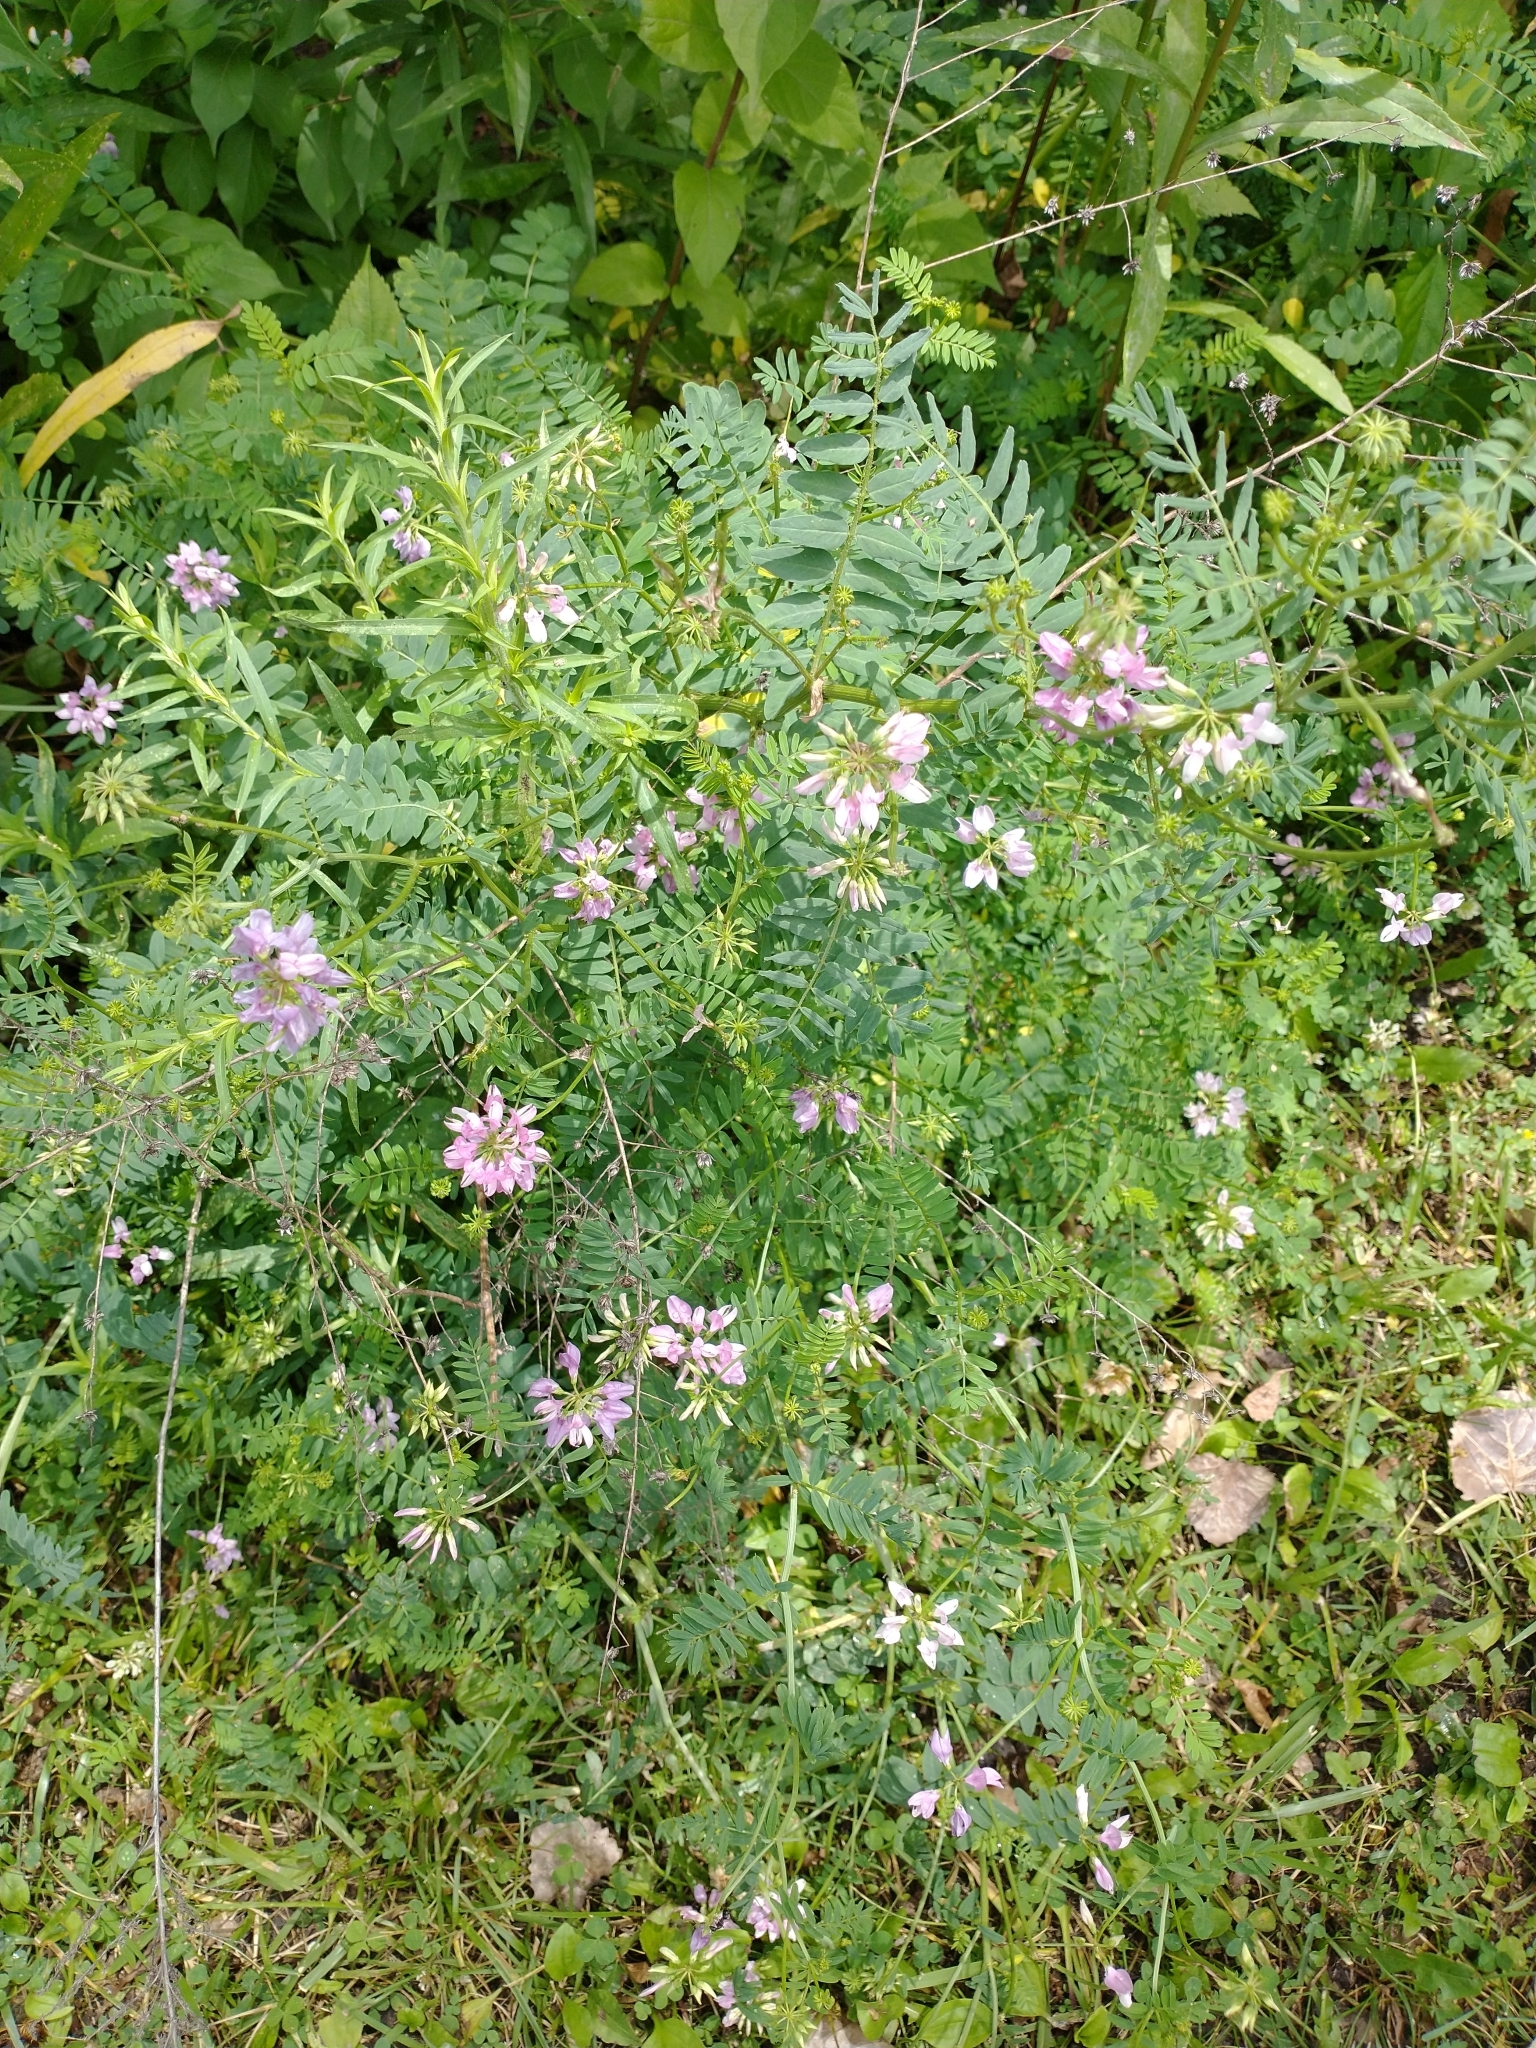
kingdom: Plantae
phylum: Tracheophyta
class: Magnoliopsida
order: Fabales
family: Fabaceae
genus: Coronilla
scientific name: Coronilla varia
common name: Crownvetch
